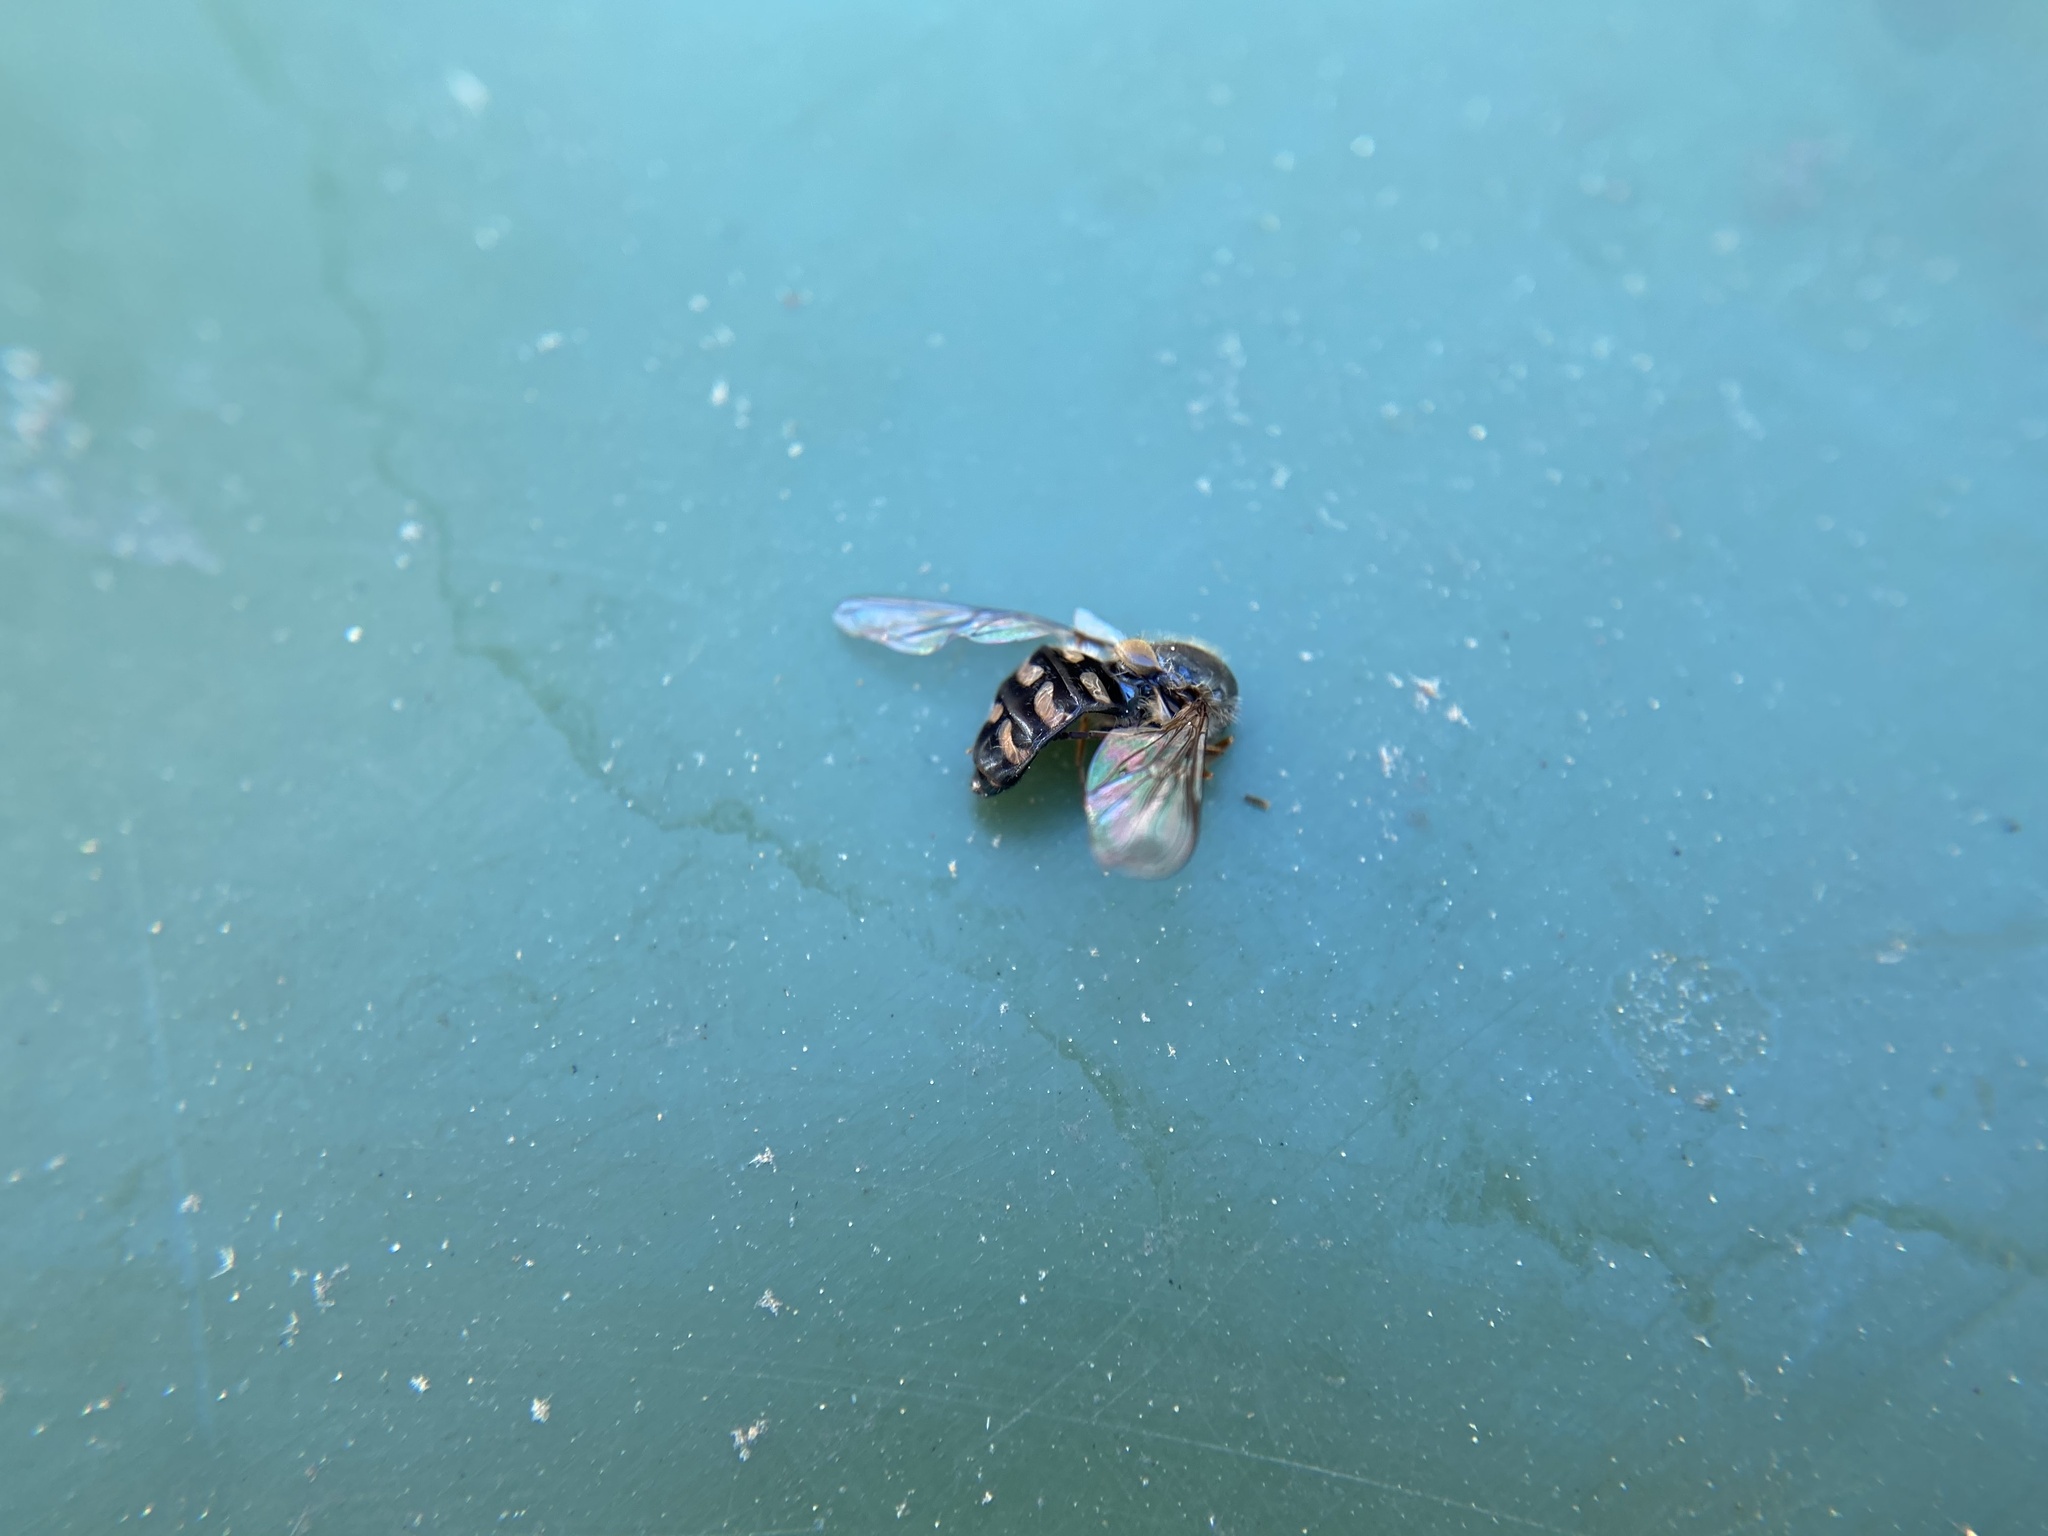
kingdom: Animalia
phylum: Arthropoda
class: Insecta
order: Diptera
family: Syrphidae
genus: Lapposyrphus
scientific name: Lapposyrphus lapponicus
